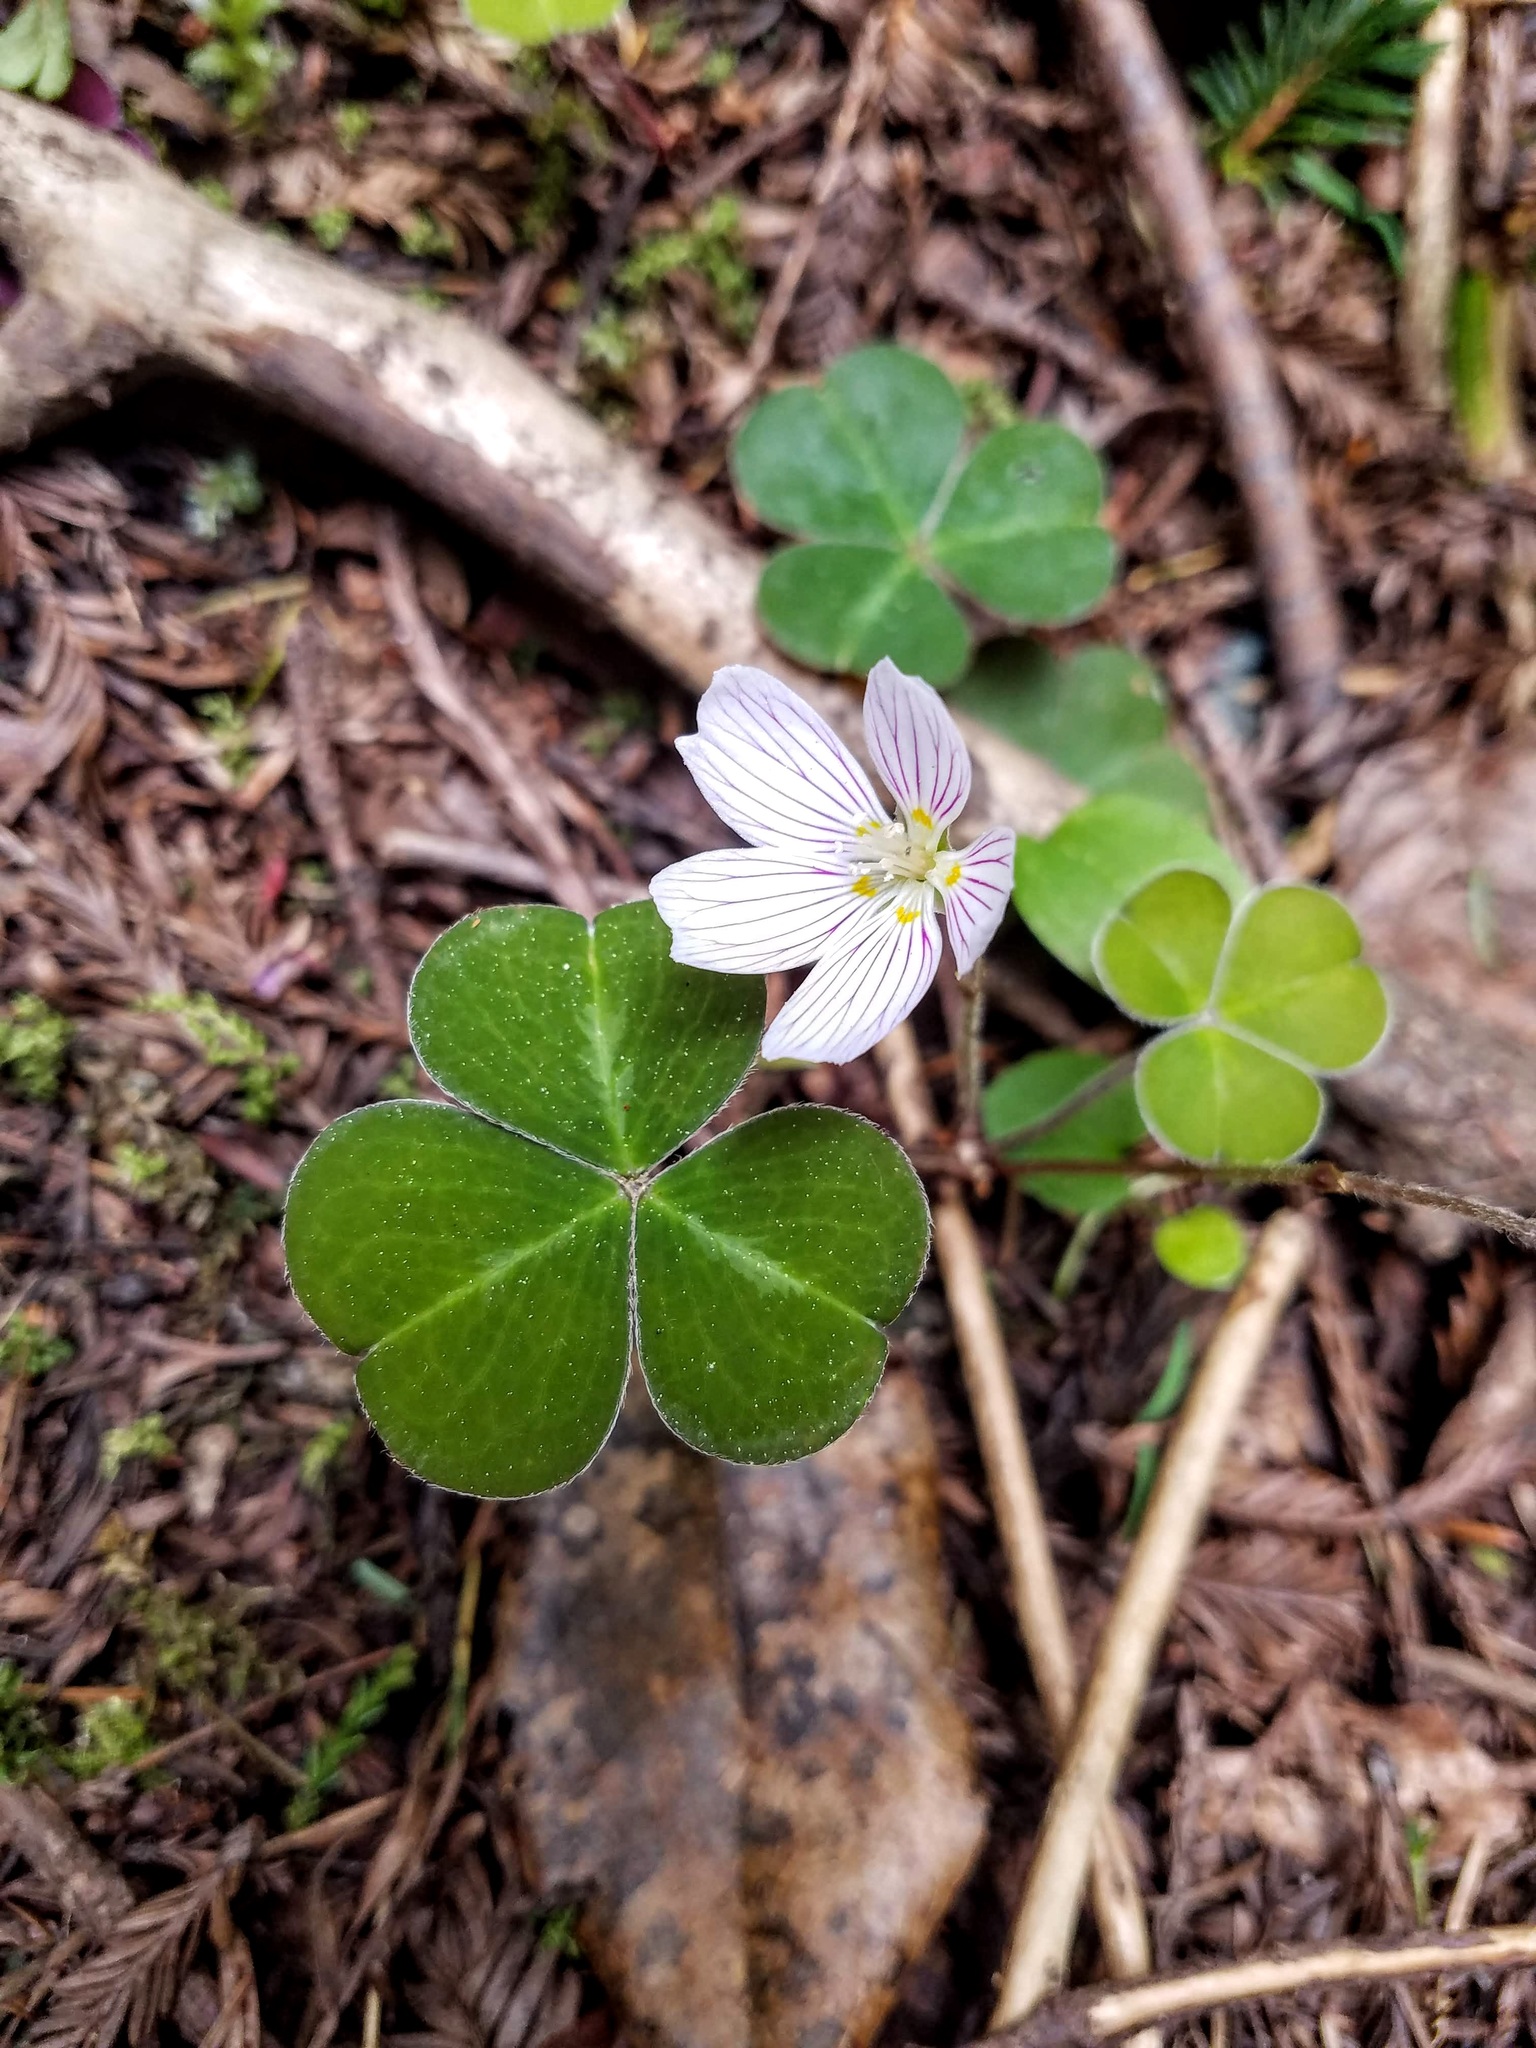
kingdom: Plantae
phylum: Tracheophyta
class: Magnoliopsida
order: Oxalidales
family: Oxalidaceae
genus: Oxalis
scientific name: Oxalis oregana
